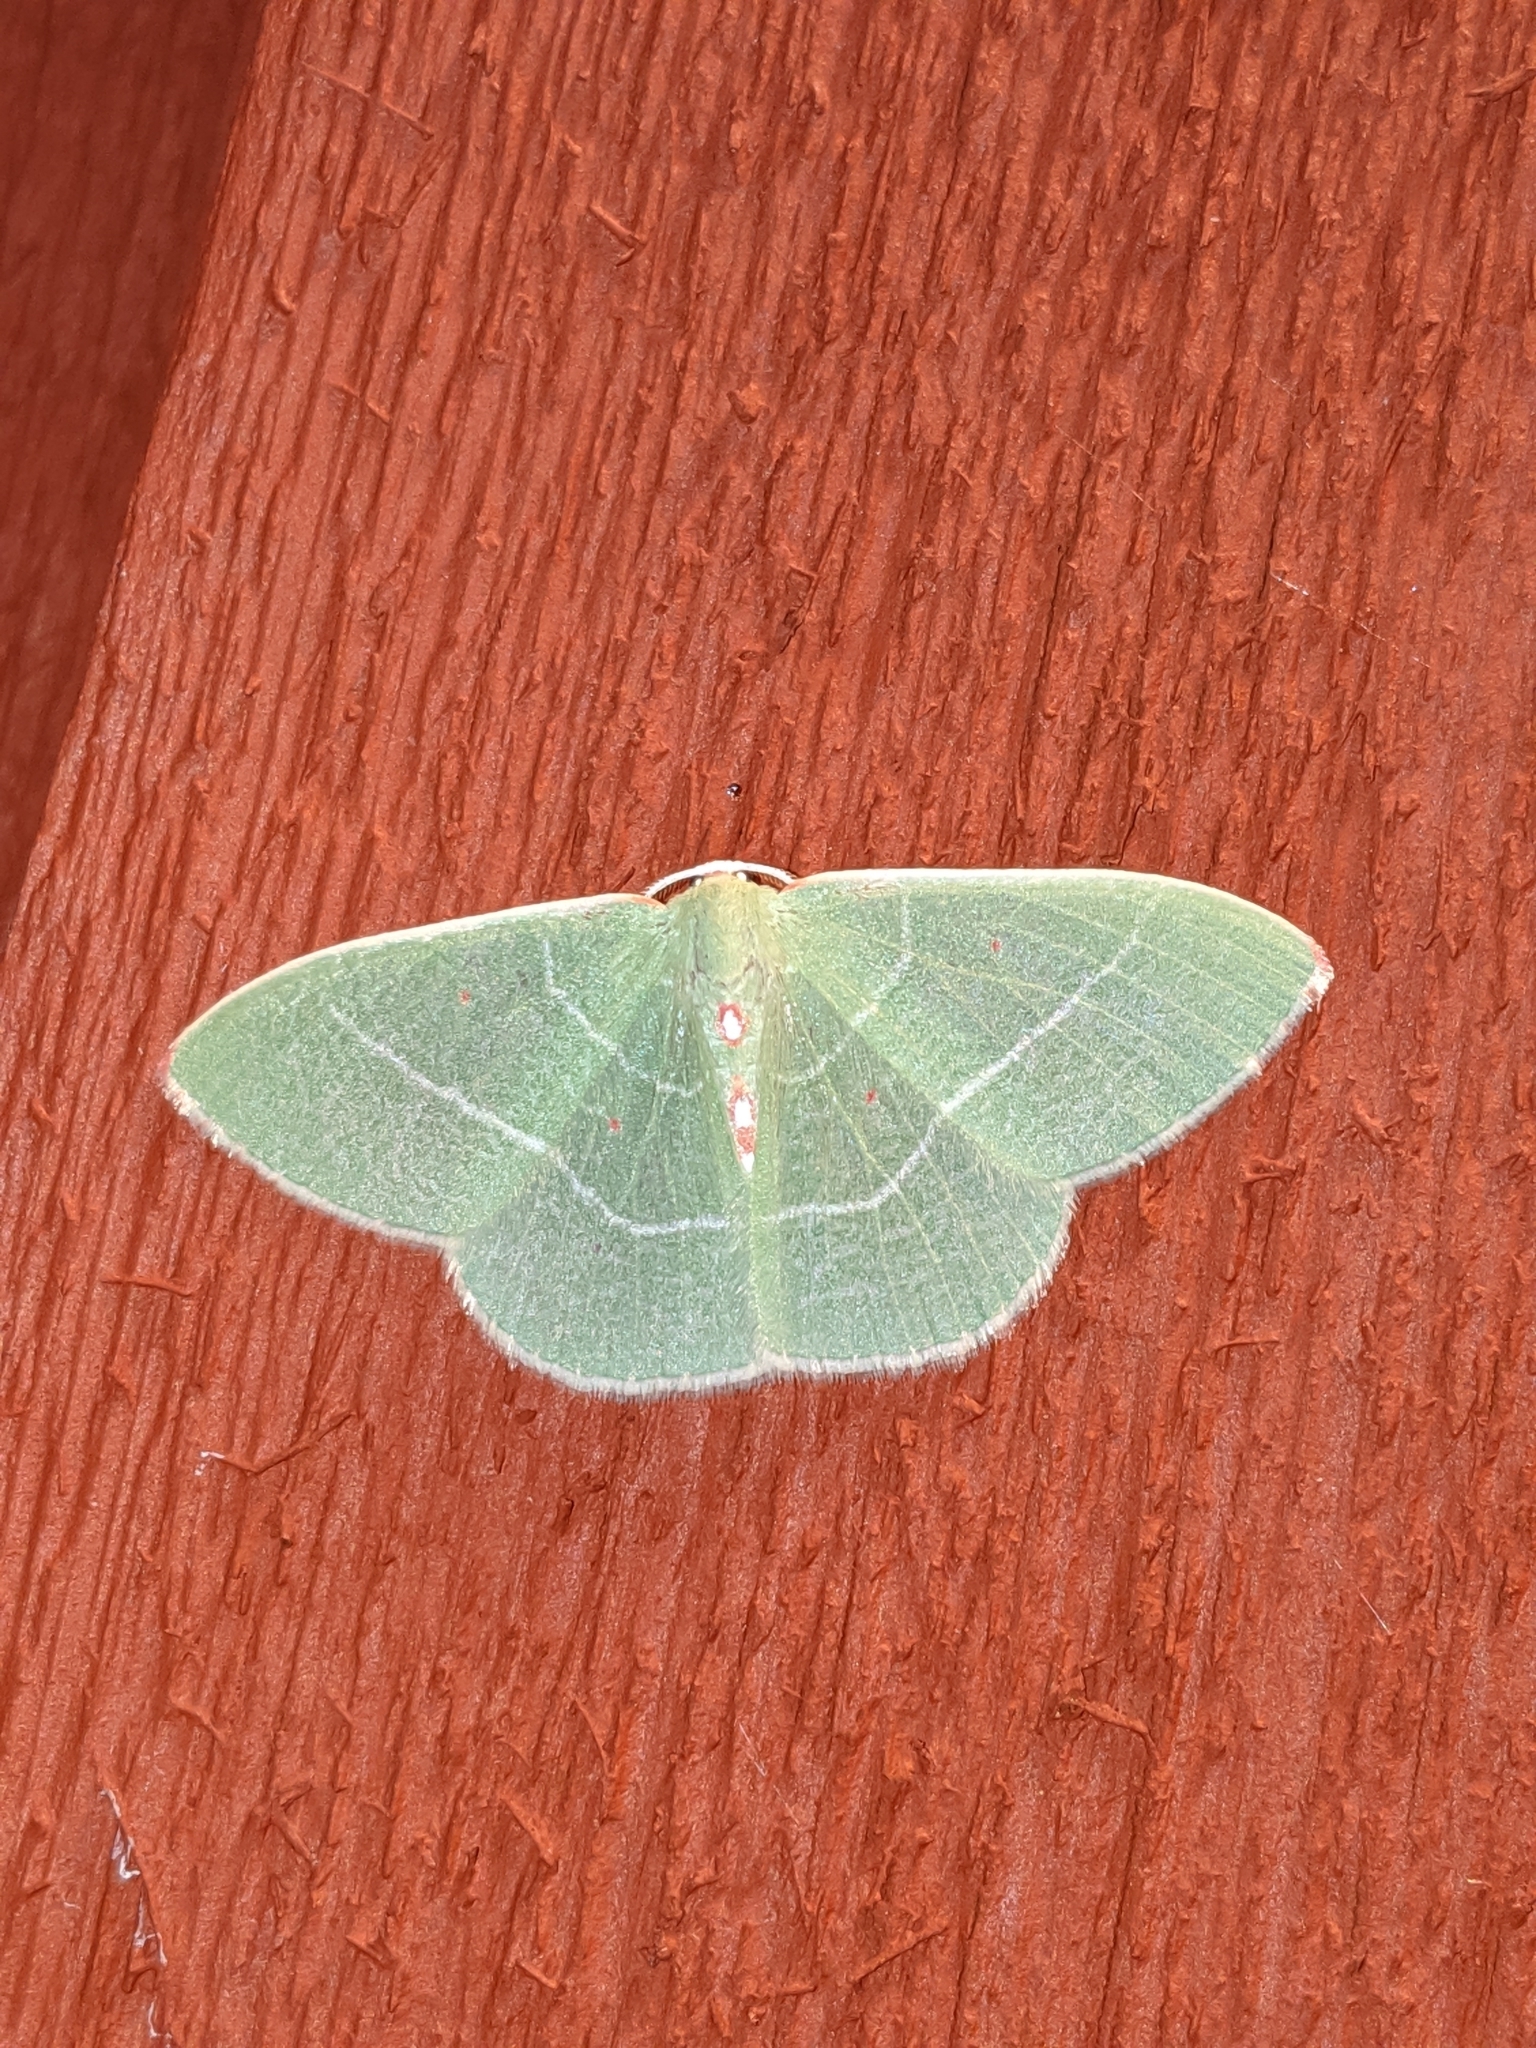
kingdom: Animalia
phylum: Arthropoda
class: Insecta
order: Lepidoptera
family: Geometridae
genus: Nemoria
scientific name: Nemoria darwiniata
